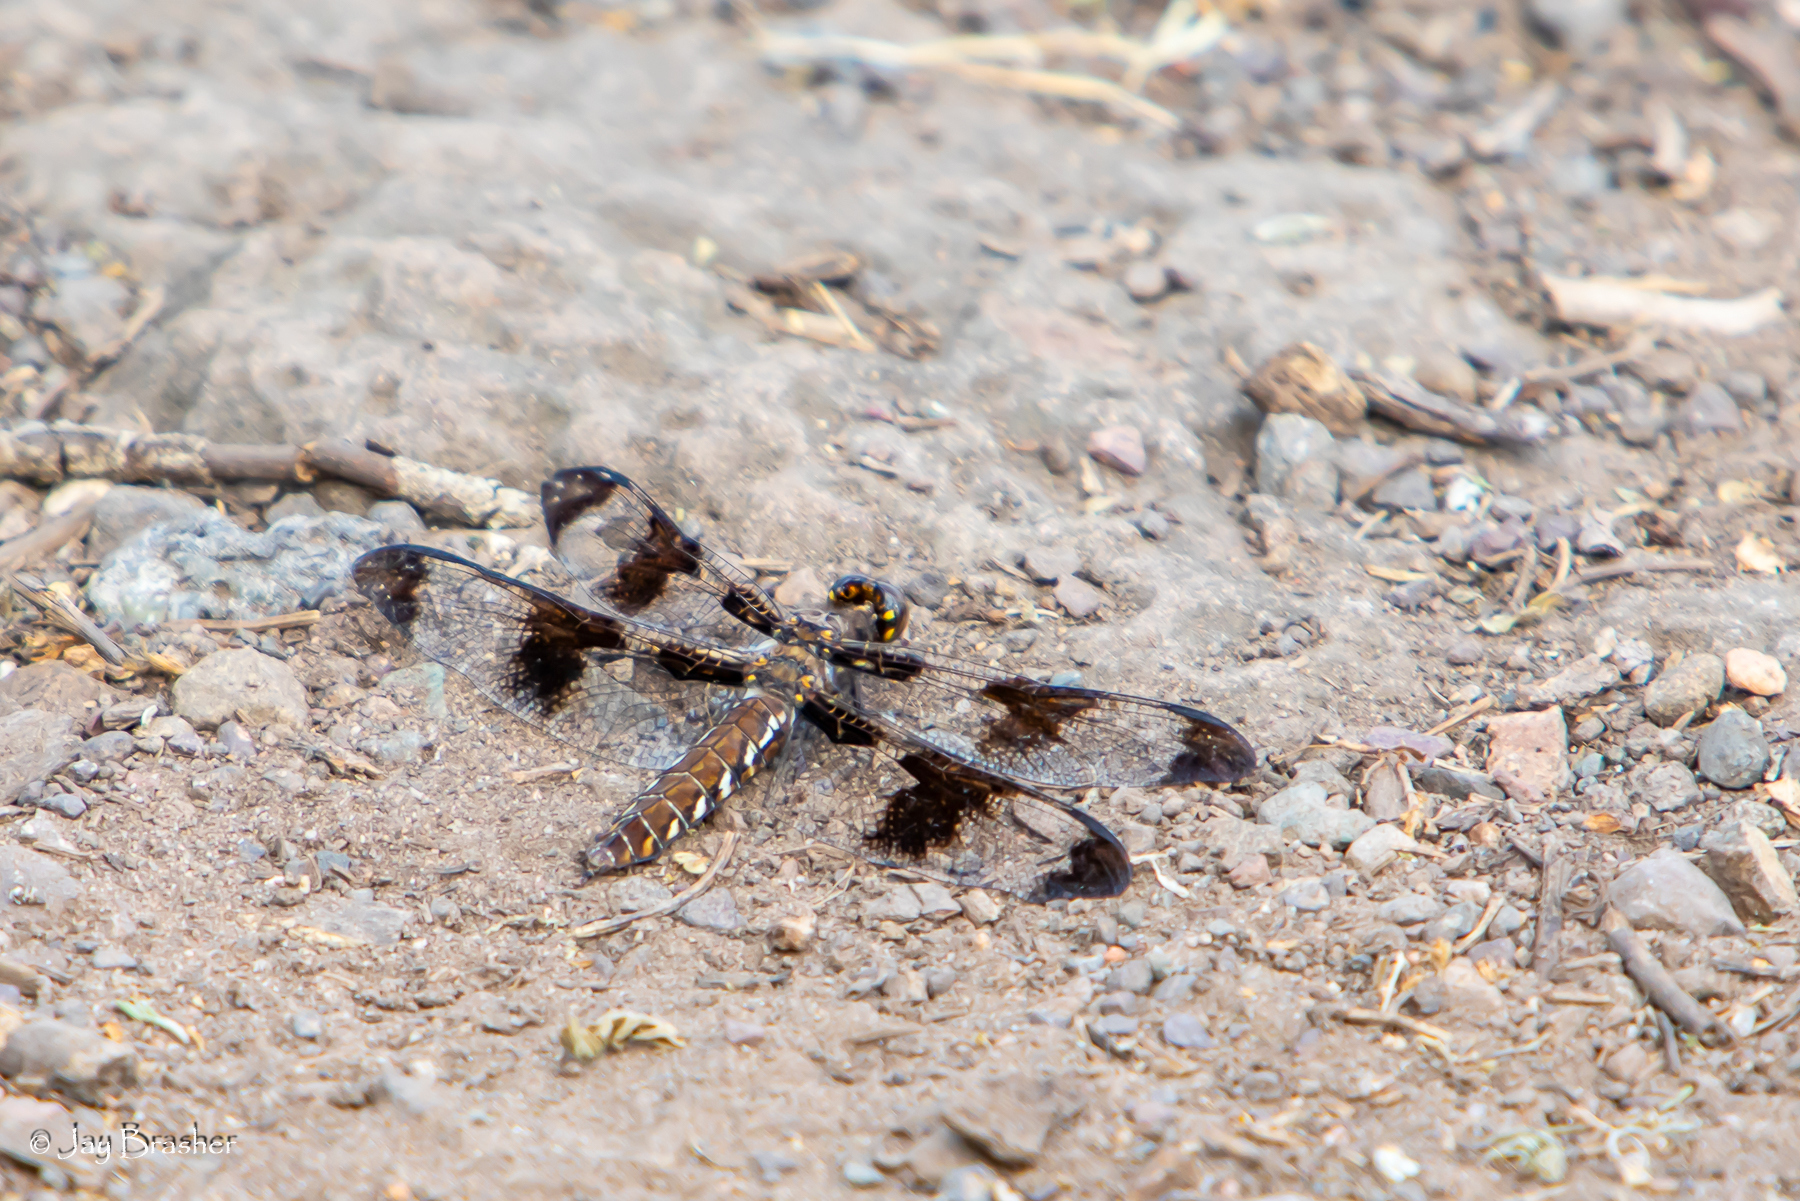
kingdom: Animalia
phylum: Arthropoda
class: Insecta
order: Odonata
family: Libellulidae
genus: Plathemis
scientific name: Plathemis lydia
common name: Common whitetail
